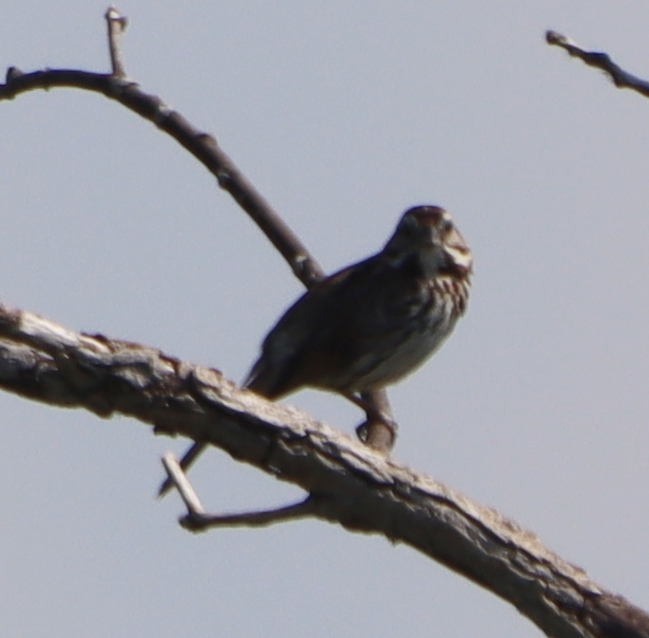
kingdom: Animalia
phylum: Chordata
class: Aves
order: Passeriformes
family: Passerellidae
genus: Melospiza
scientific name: Melospiza melodia
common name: Song sparrow
